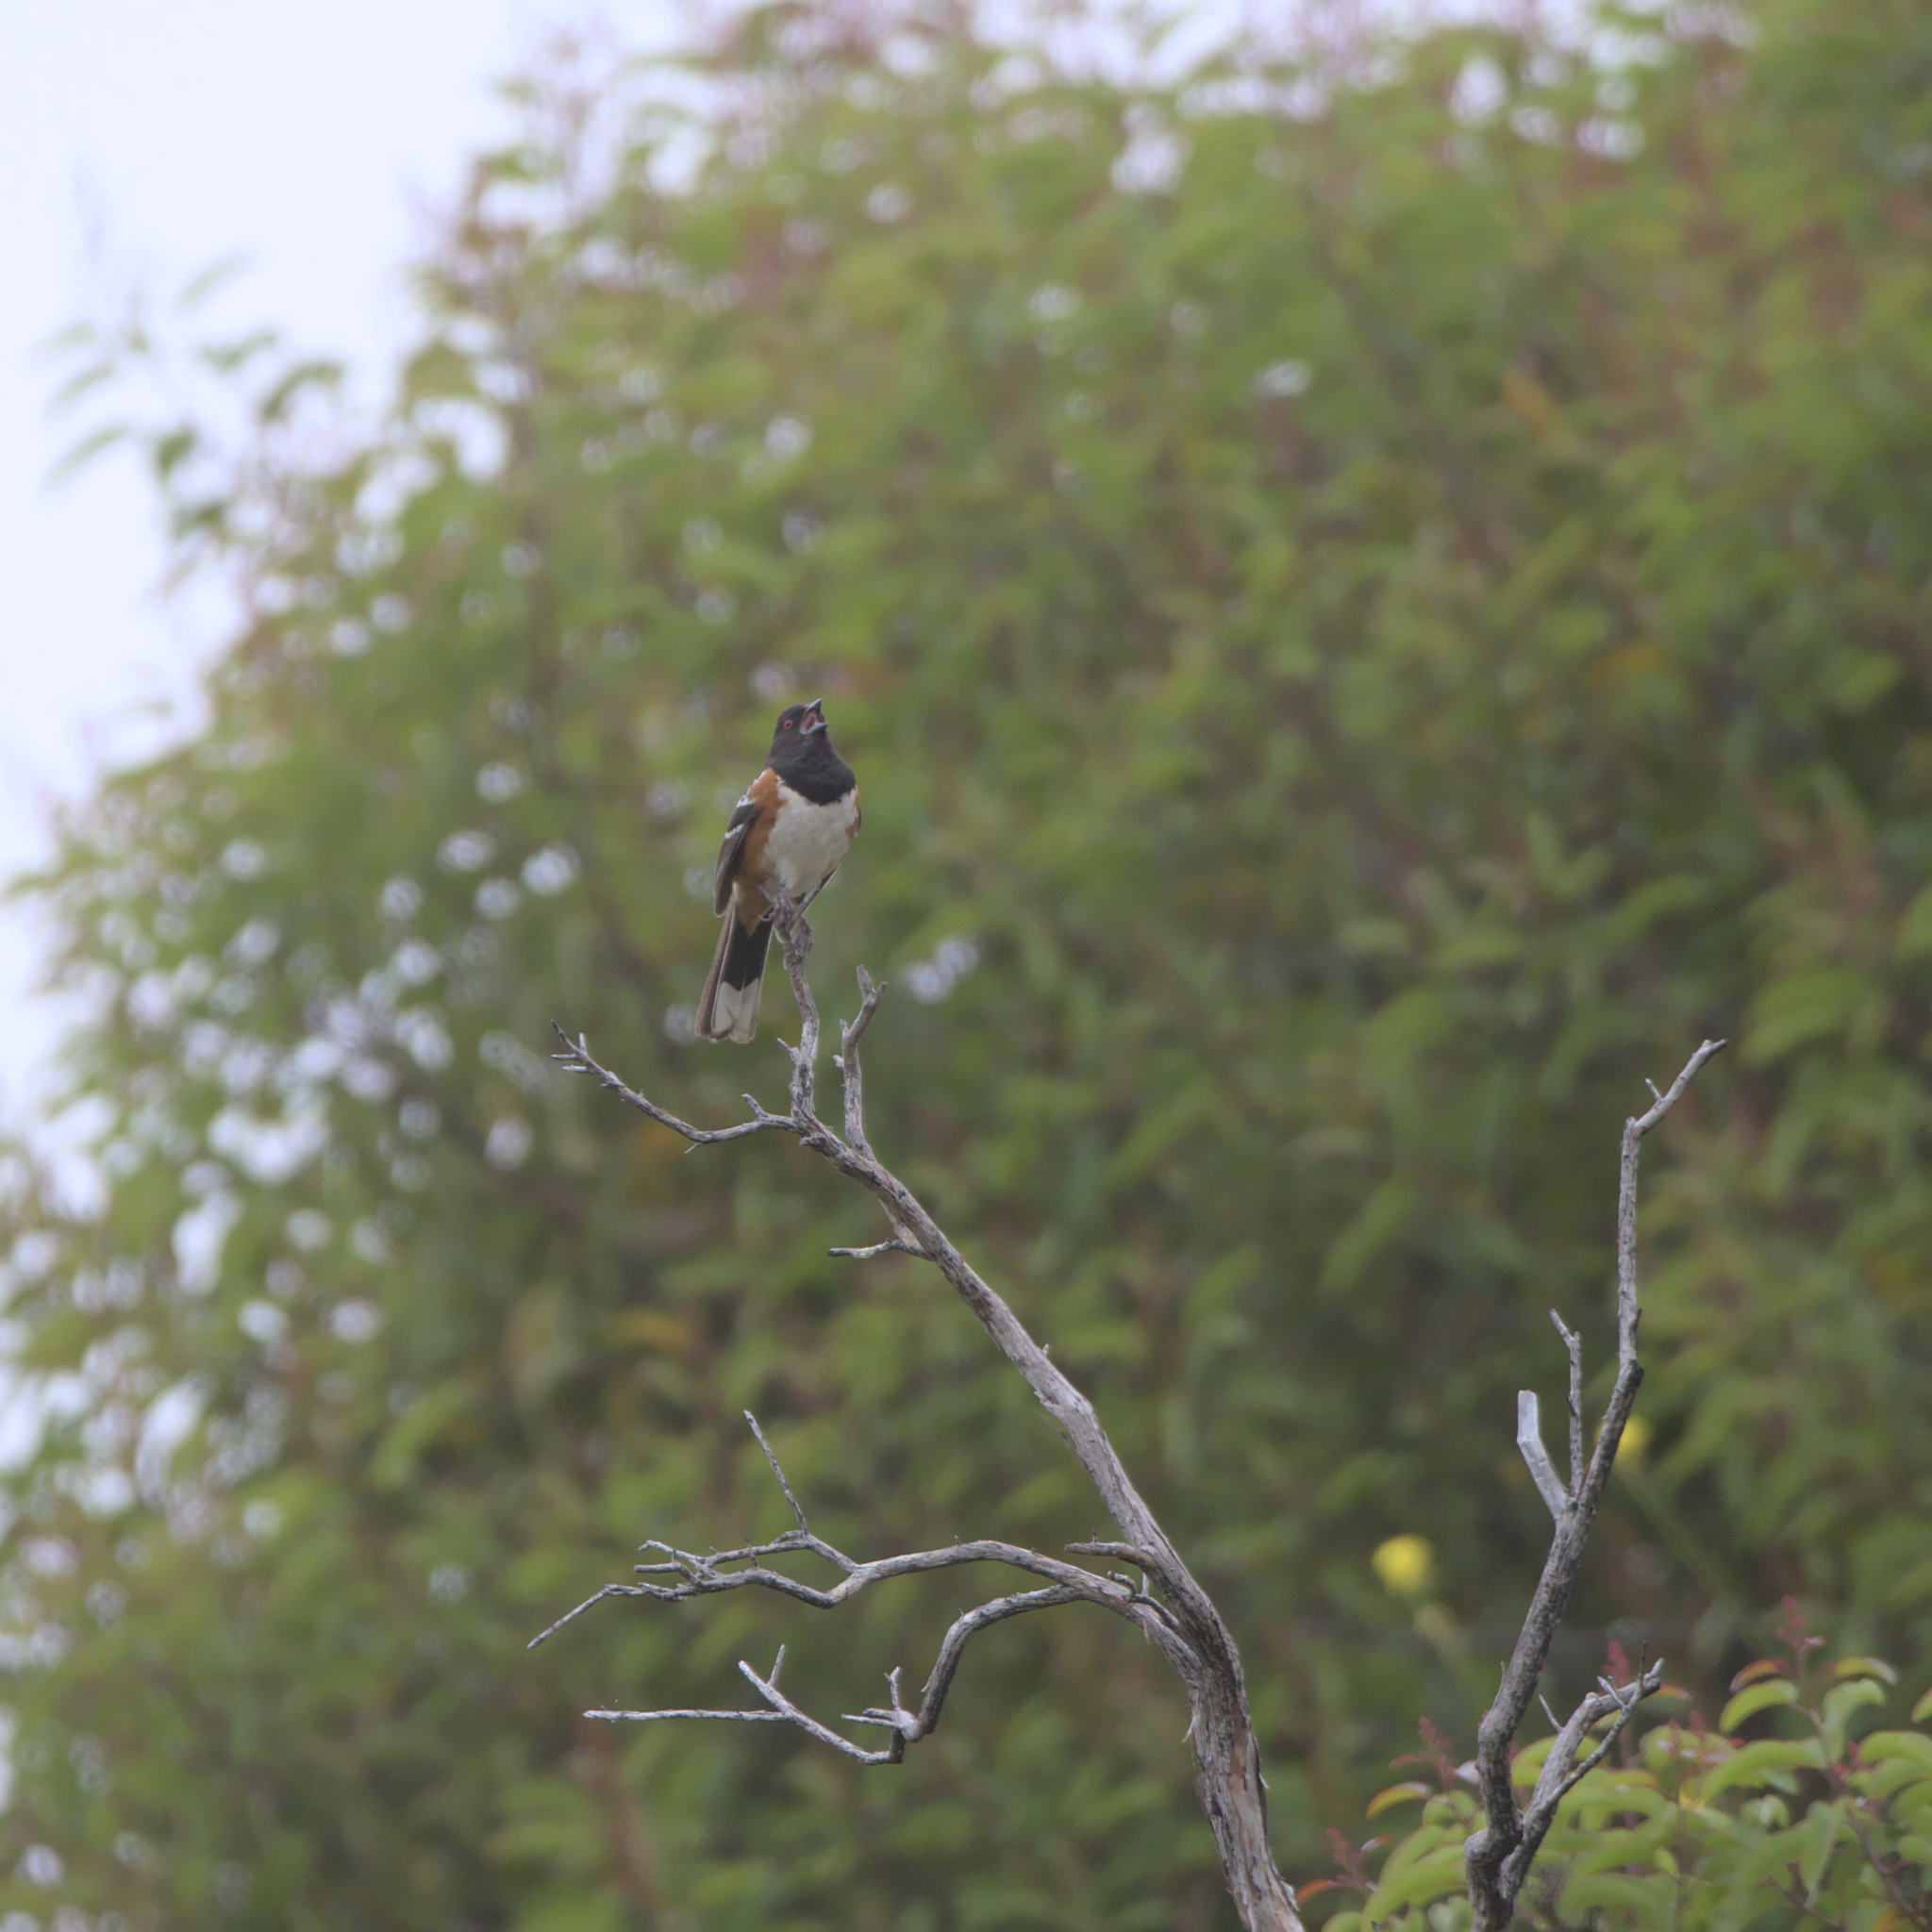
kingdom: Animalia
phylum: Chordata
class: Aves
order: Passeriformes
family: Passerellidae
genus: Pipilo
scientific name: Pipilo maculatus
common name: Spotted towhee
